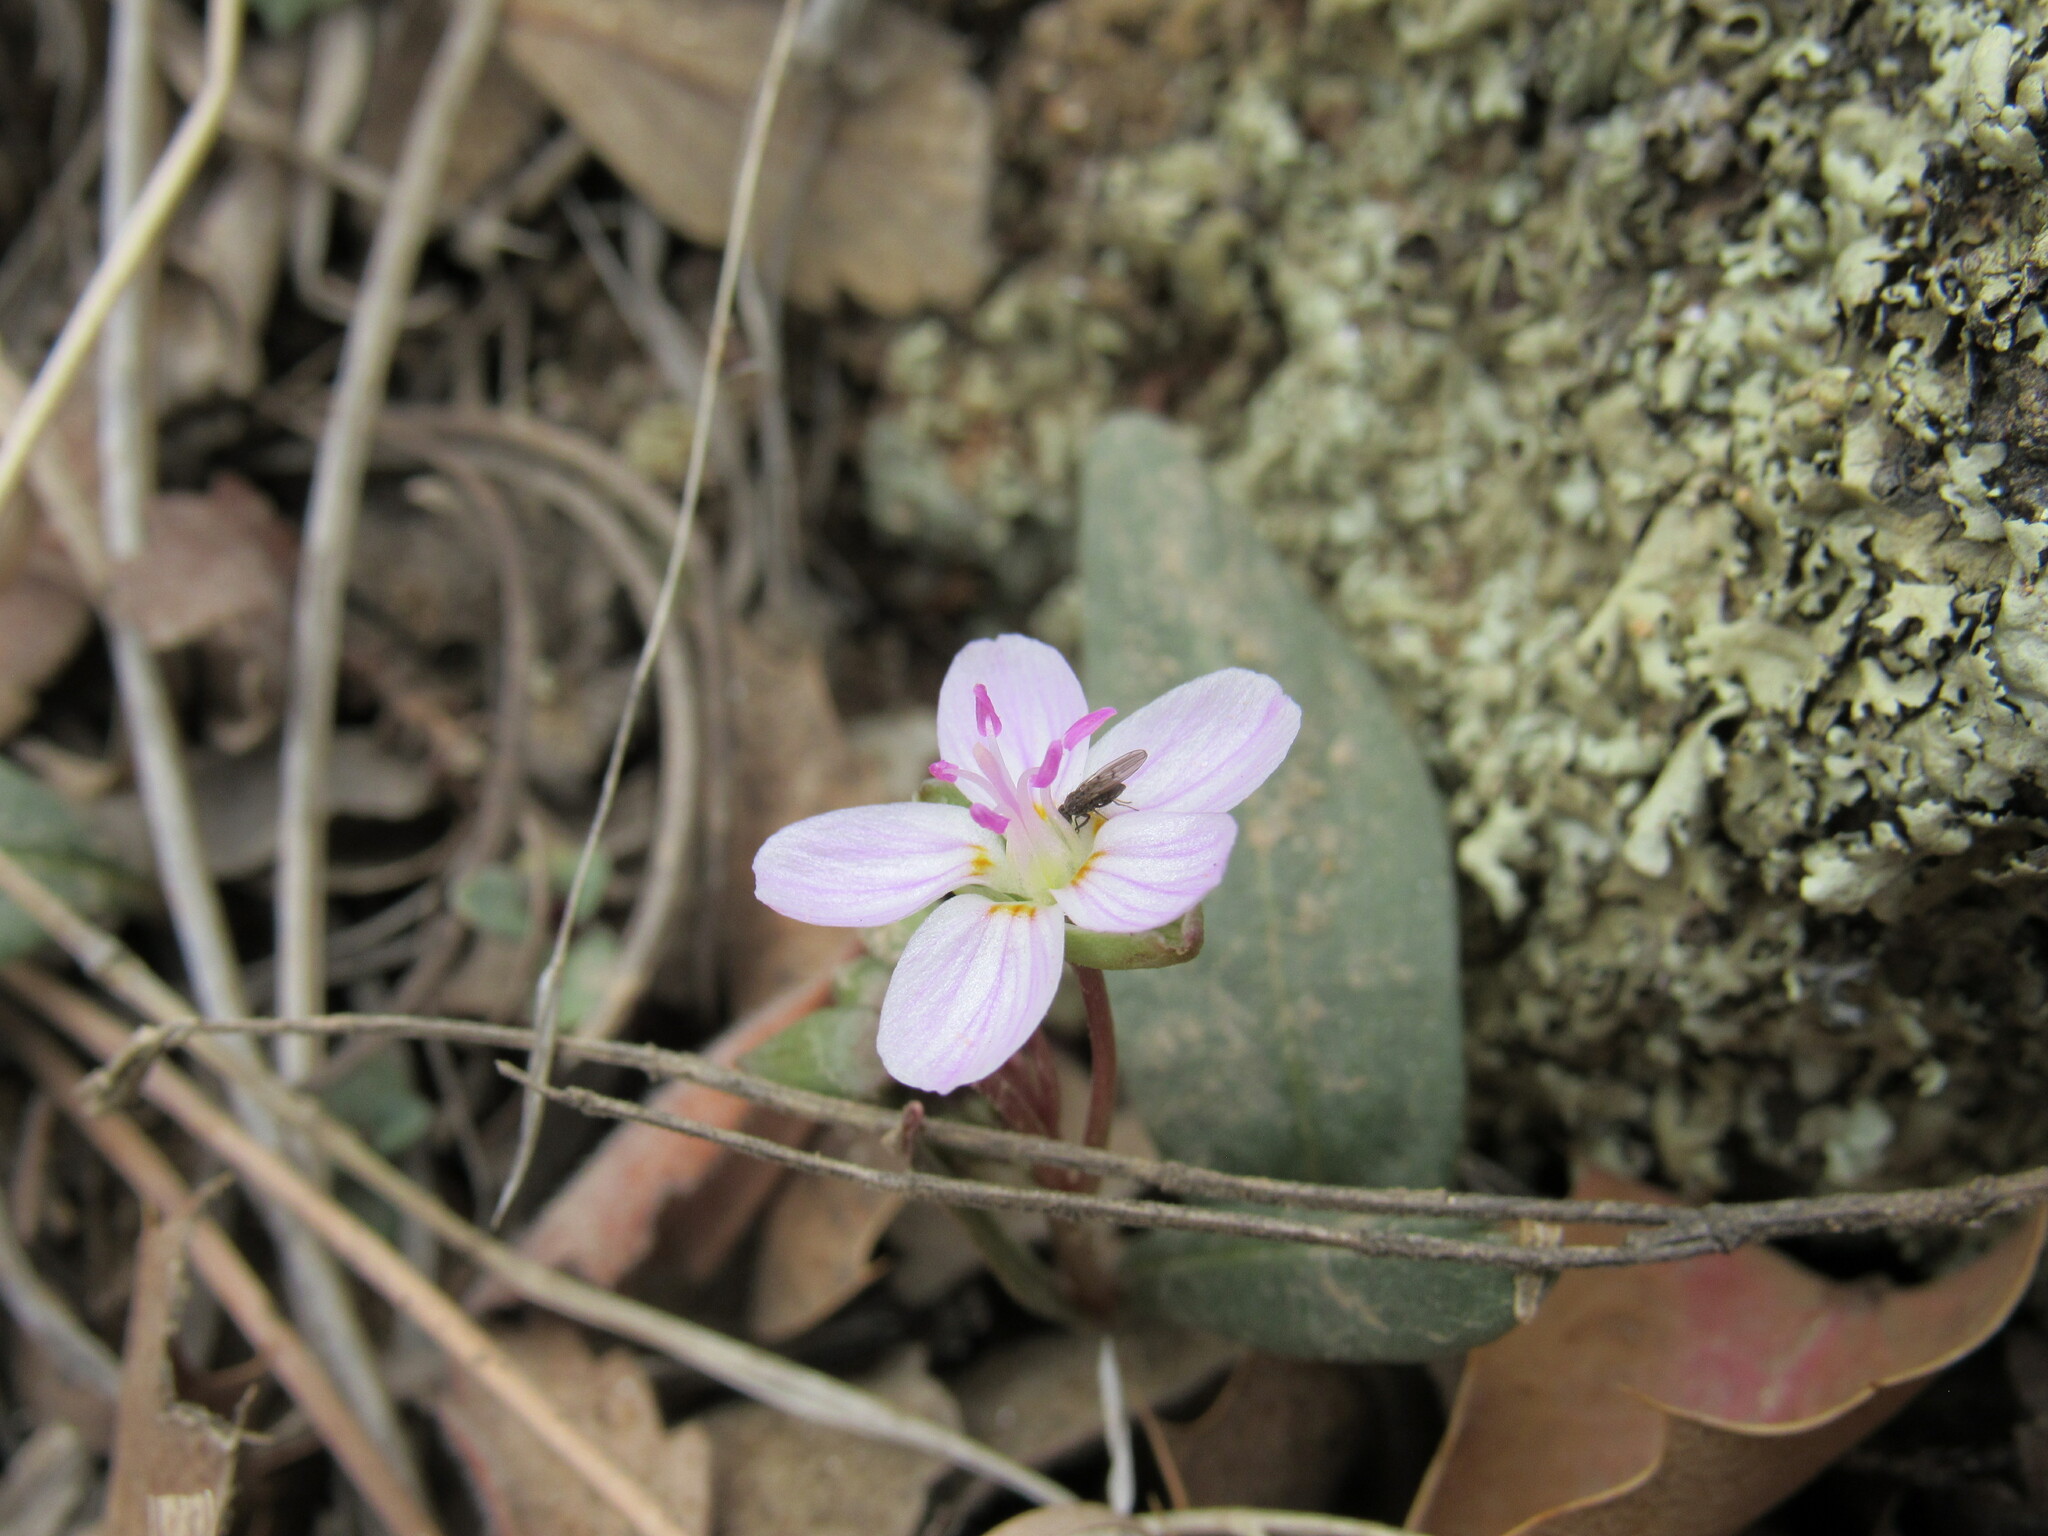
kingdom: Plantae
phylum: Tracheophyta
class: Magnoliopsida
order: Caryophyllales
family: Montiaceae
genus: Claytonia
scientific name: Claytonia rosea
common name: Rocky mountain spring-beauty
